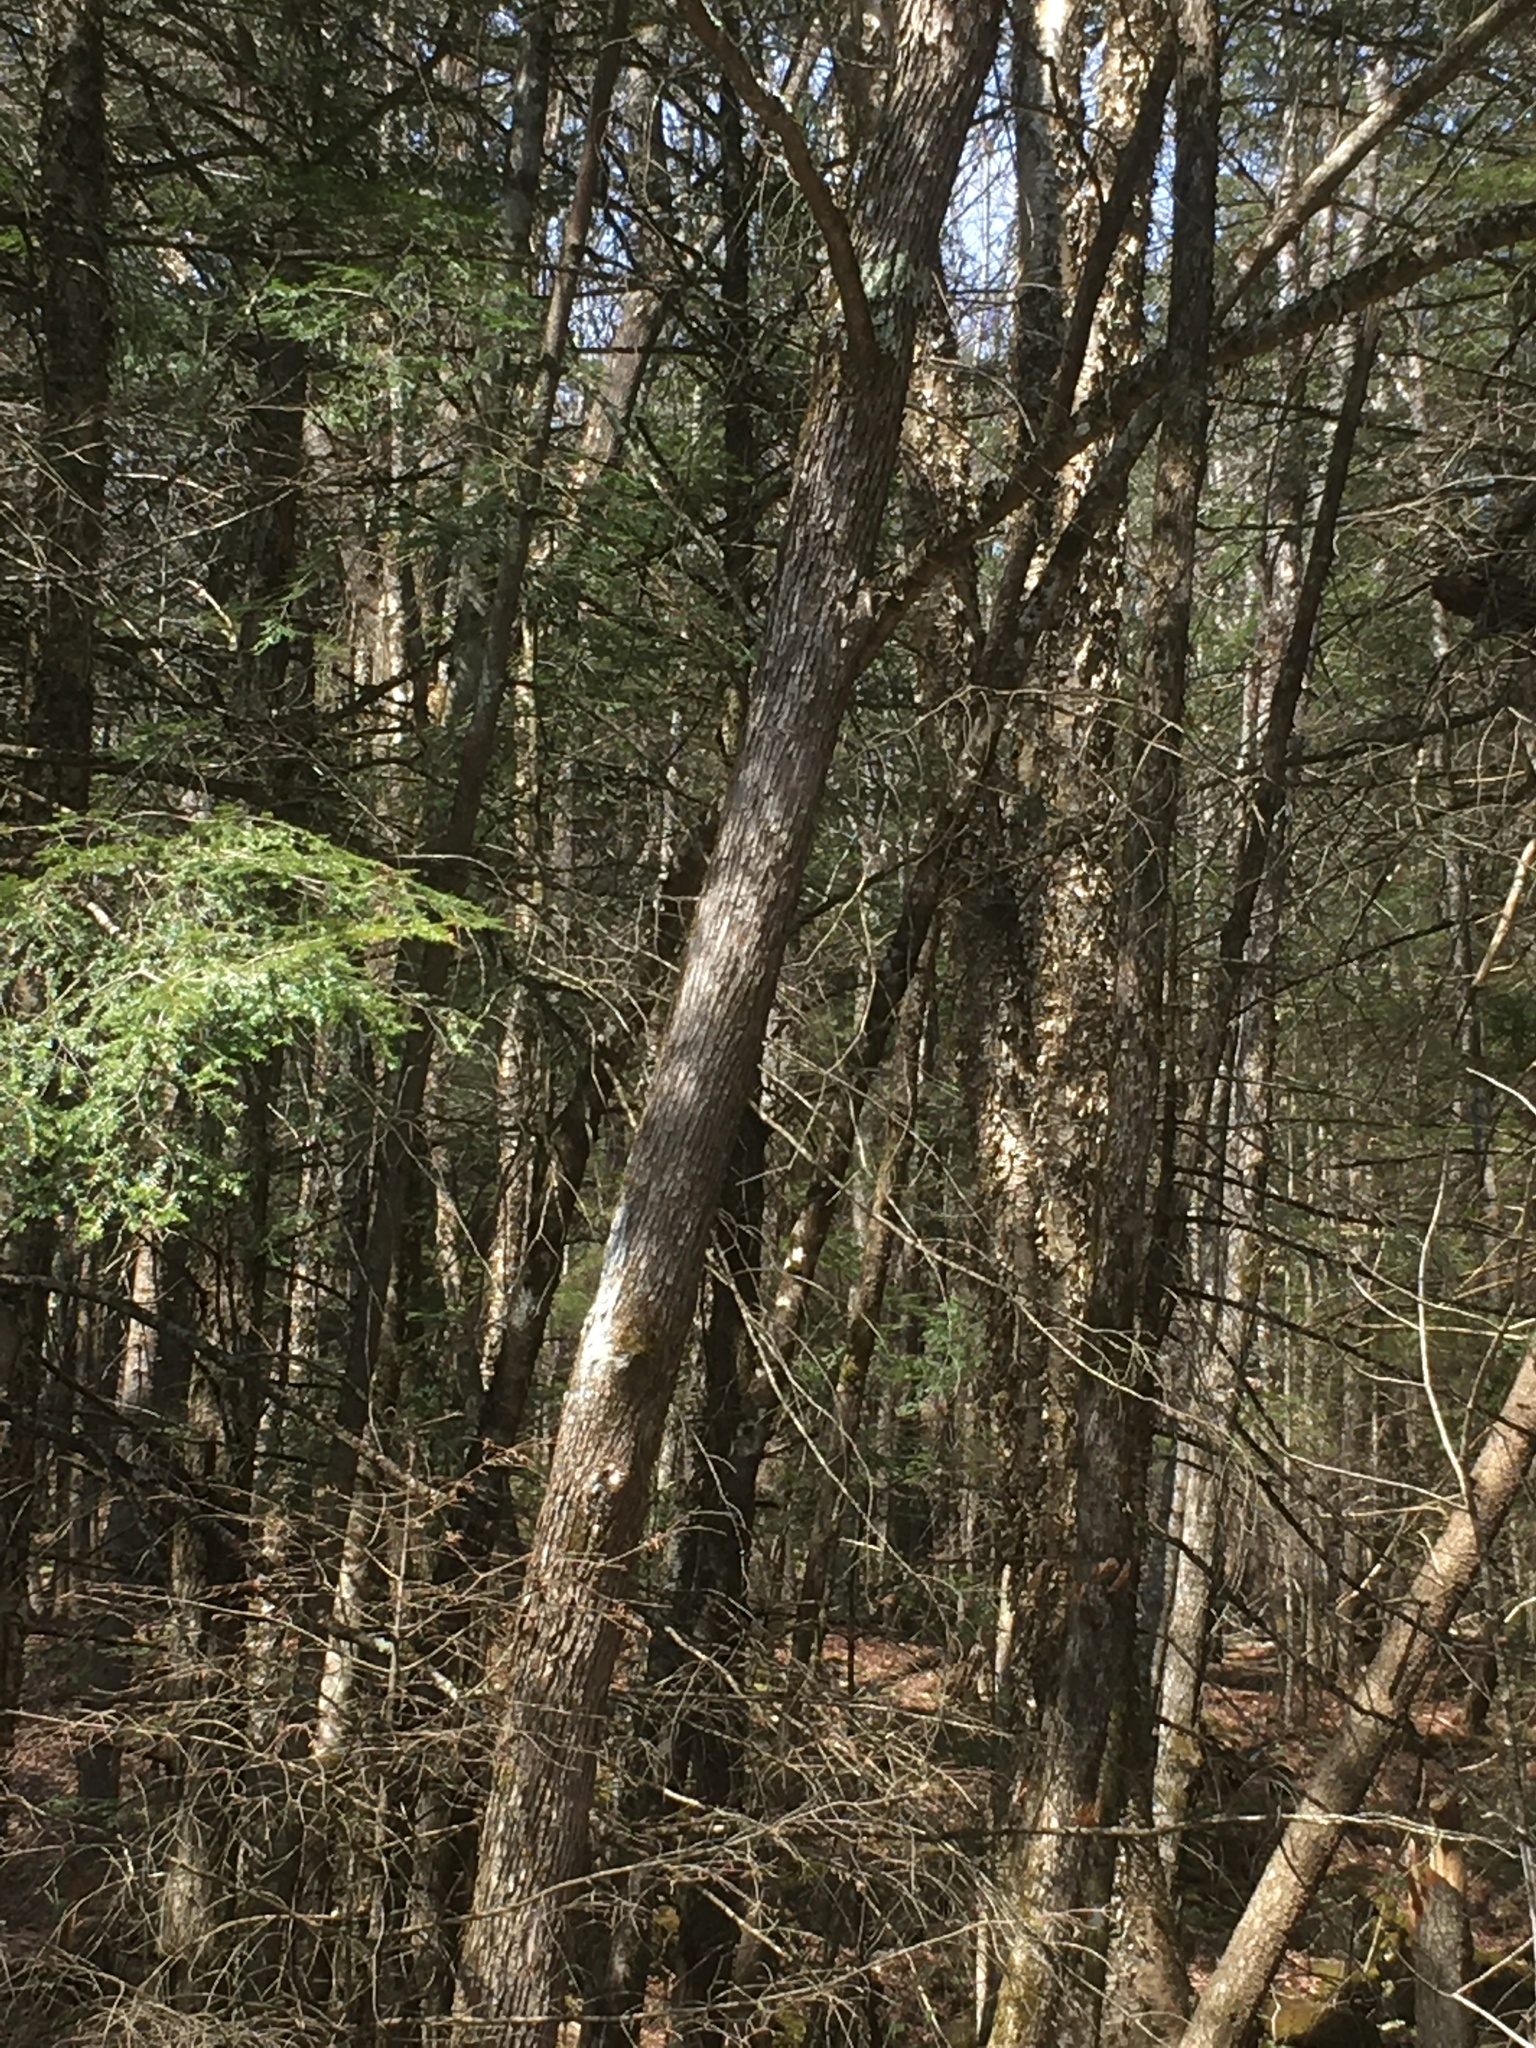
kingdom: Plantae
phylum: Tracheophyta
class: Magnoliopsida
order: Fagales
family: Betulaceae
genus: Ostrya
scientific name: Ostrya virginiana
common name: Ironwood
